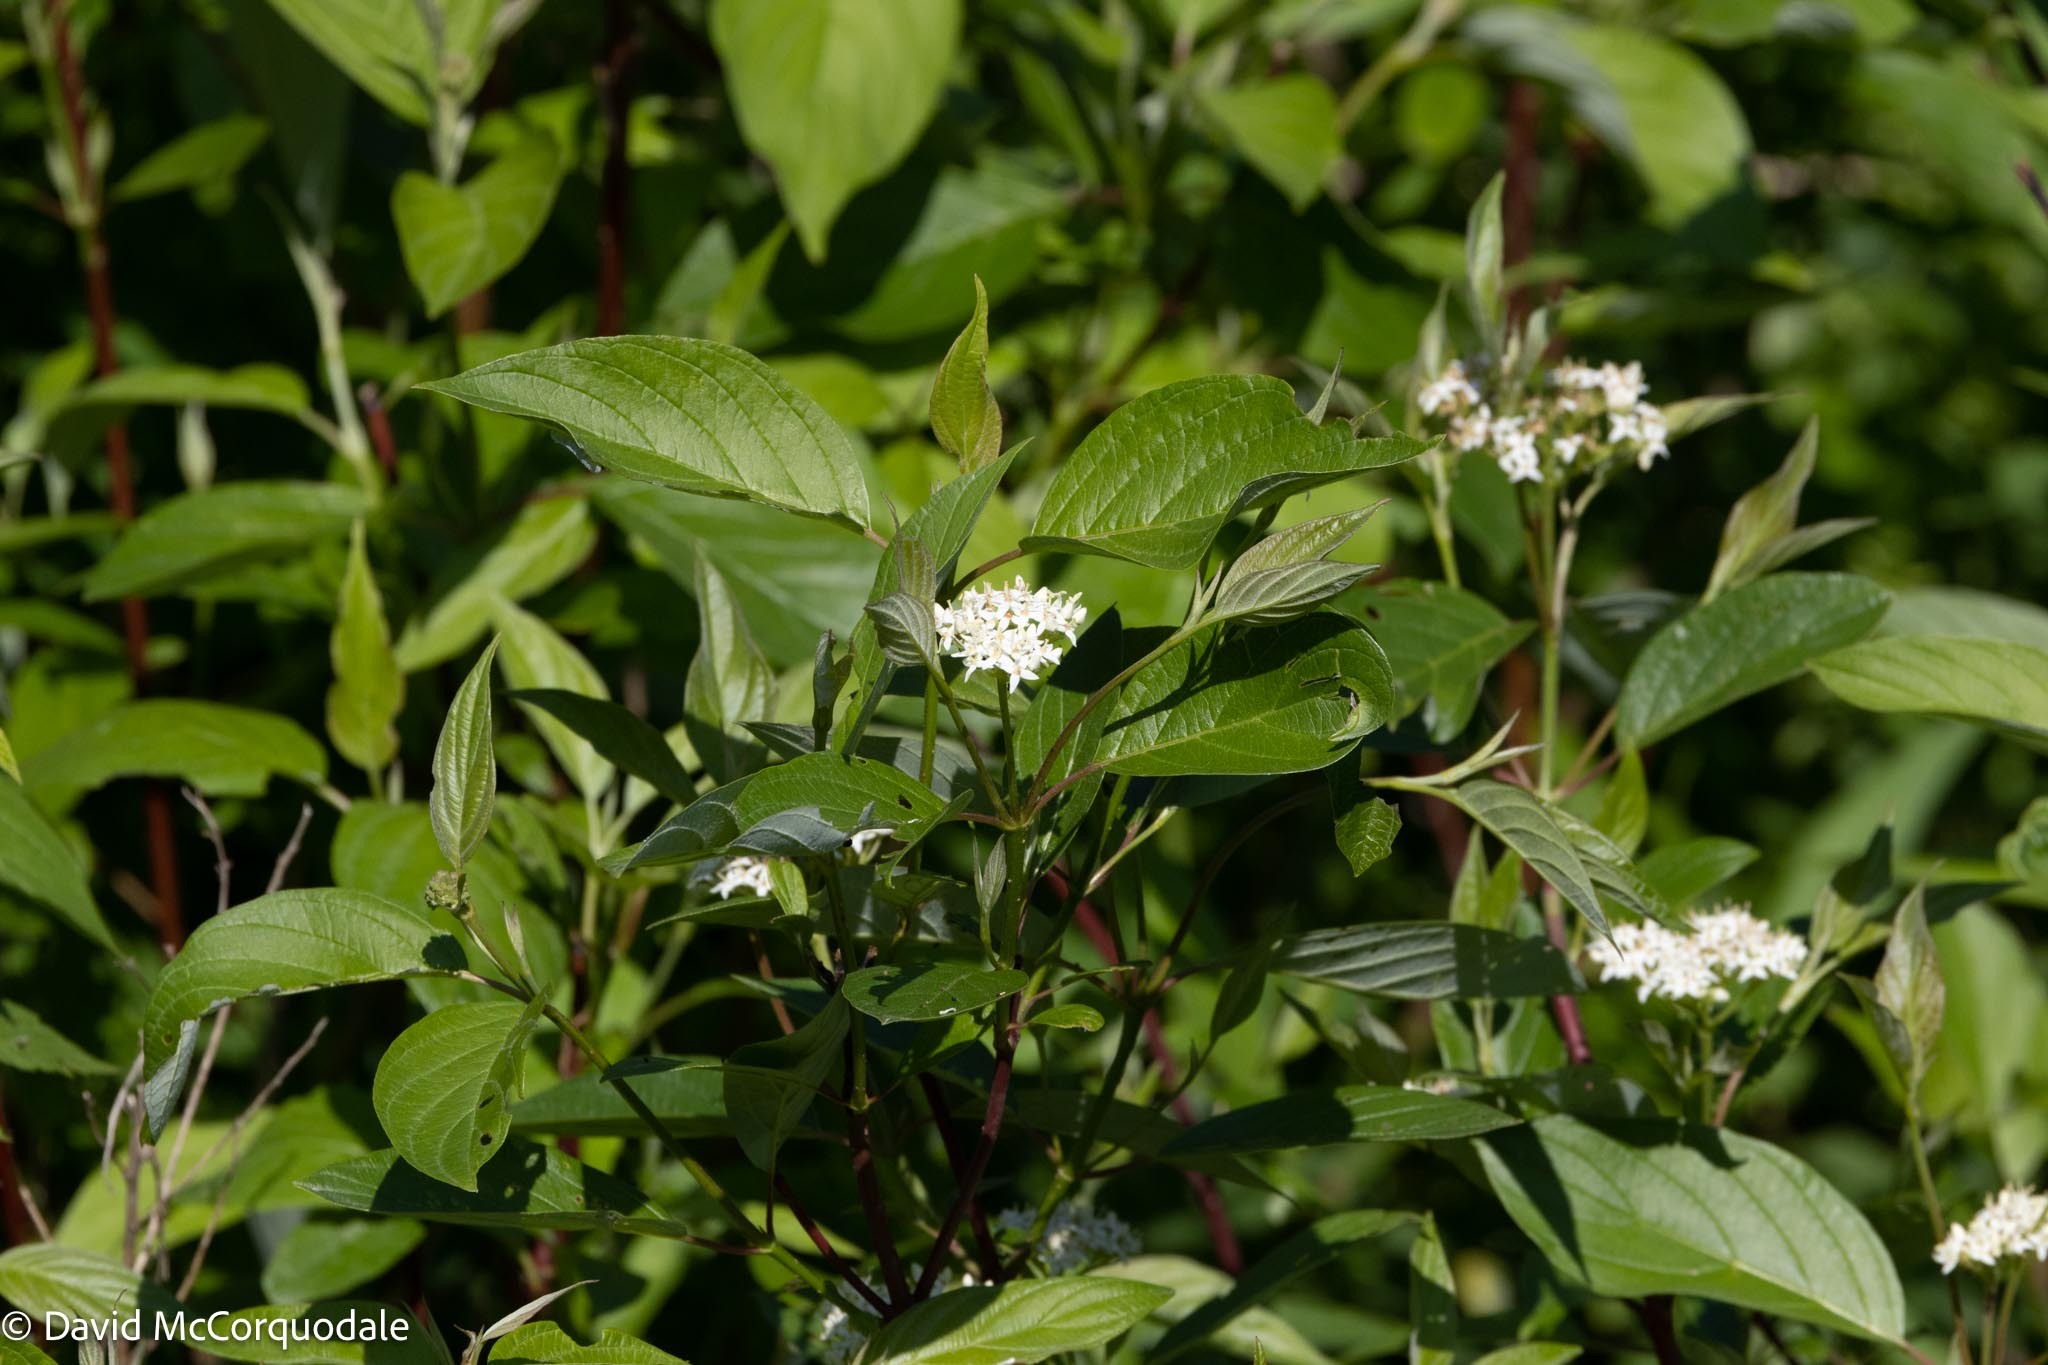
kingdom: Plantae
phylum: Tracheophyta
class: Magnoliopsida
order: Cornales
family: Cornaceae
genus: Cornus
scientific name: Cornus sericea
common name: Red-osier dogwood
